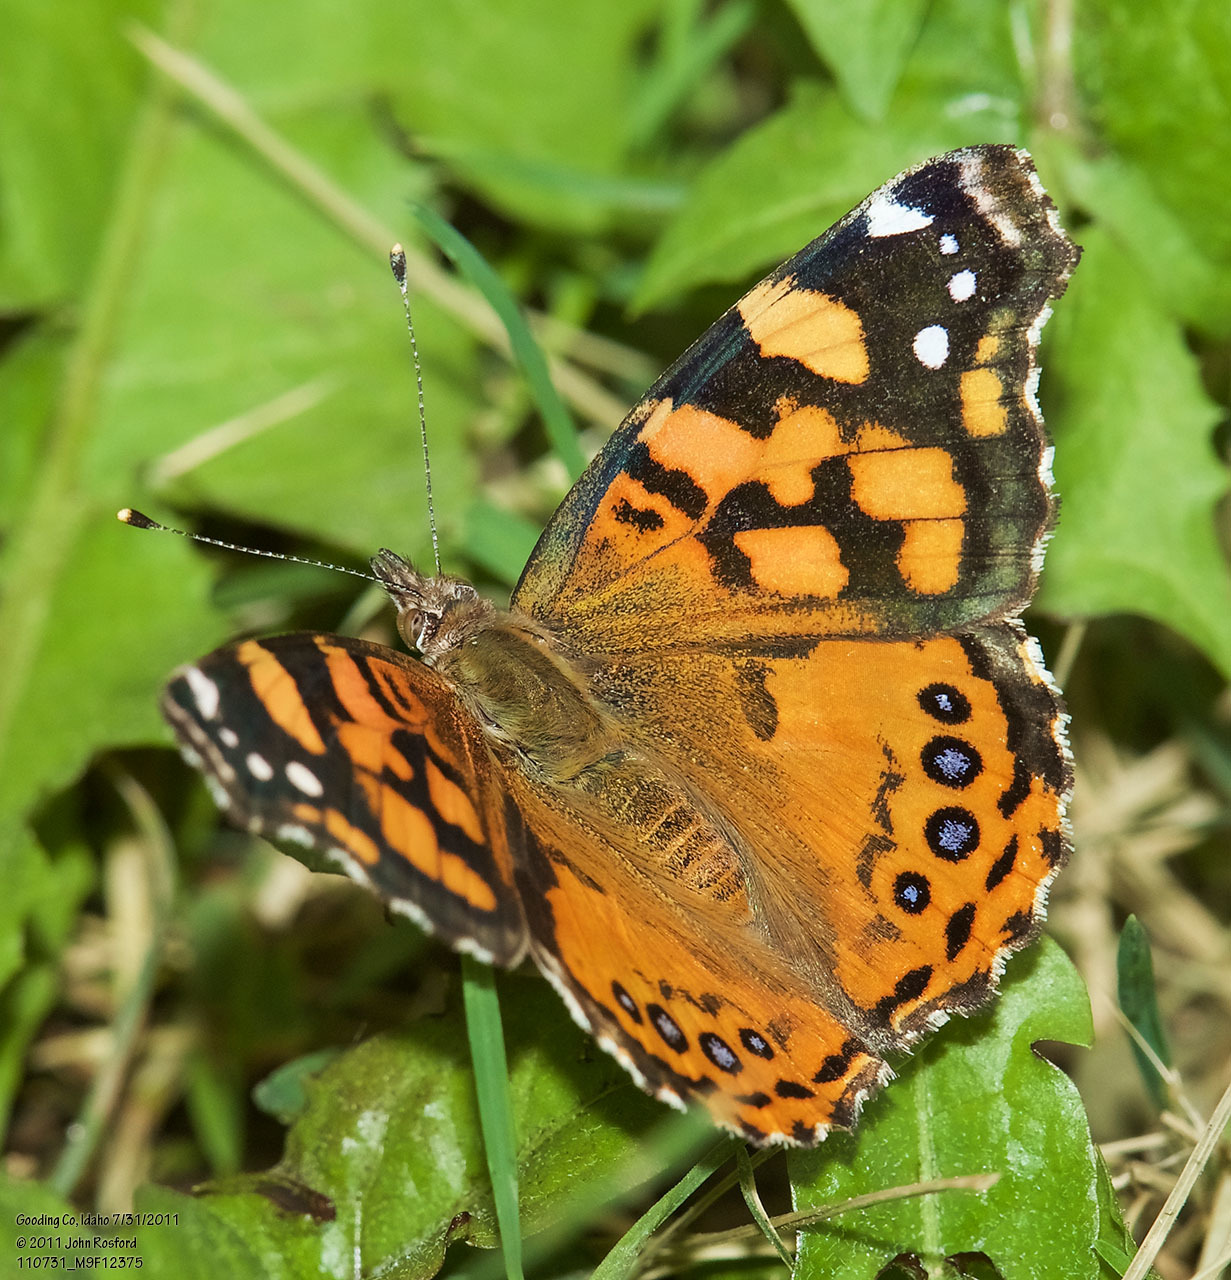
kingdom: Animalia
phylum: Arthropoda
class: Insecta
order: Lepidoptera
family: Nymphalidae
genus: Vanessa
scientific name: Vanessa annabella
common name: West coast lady
